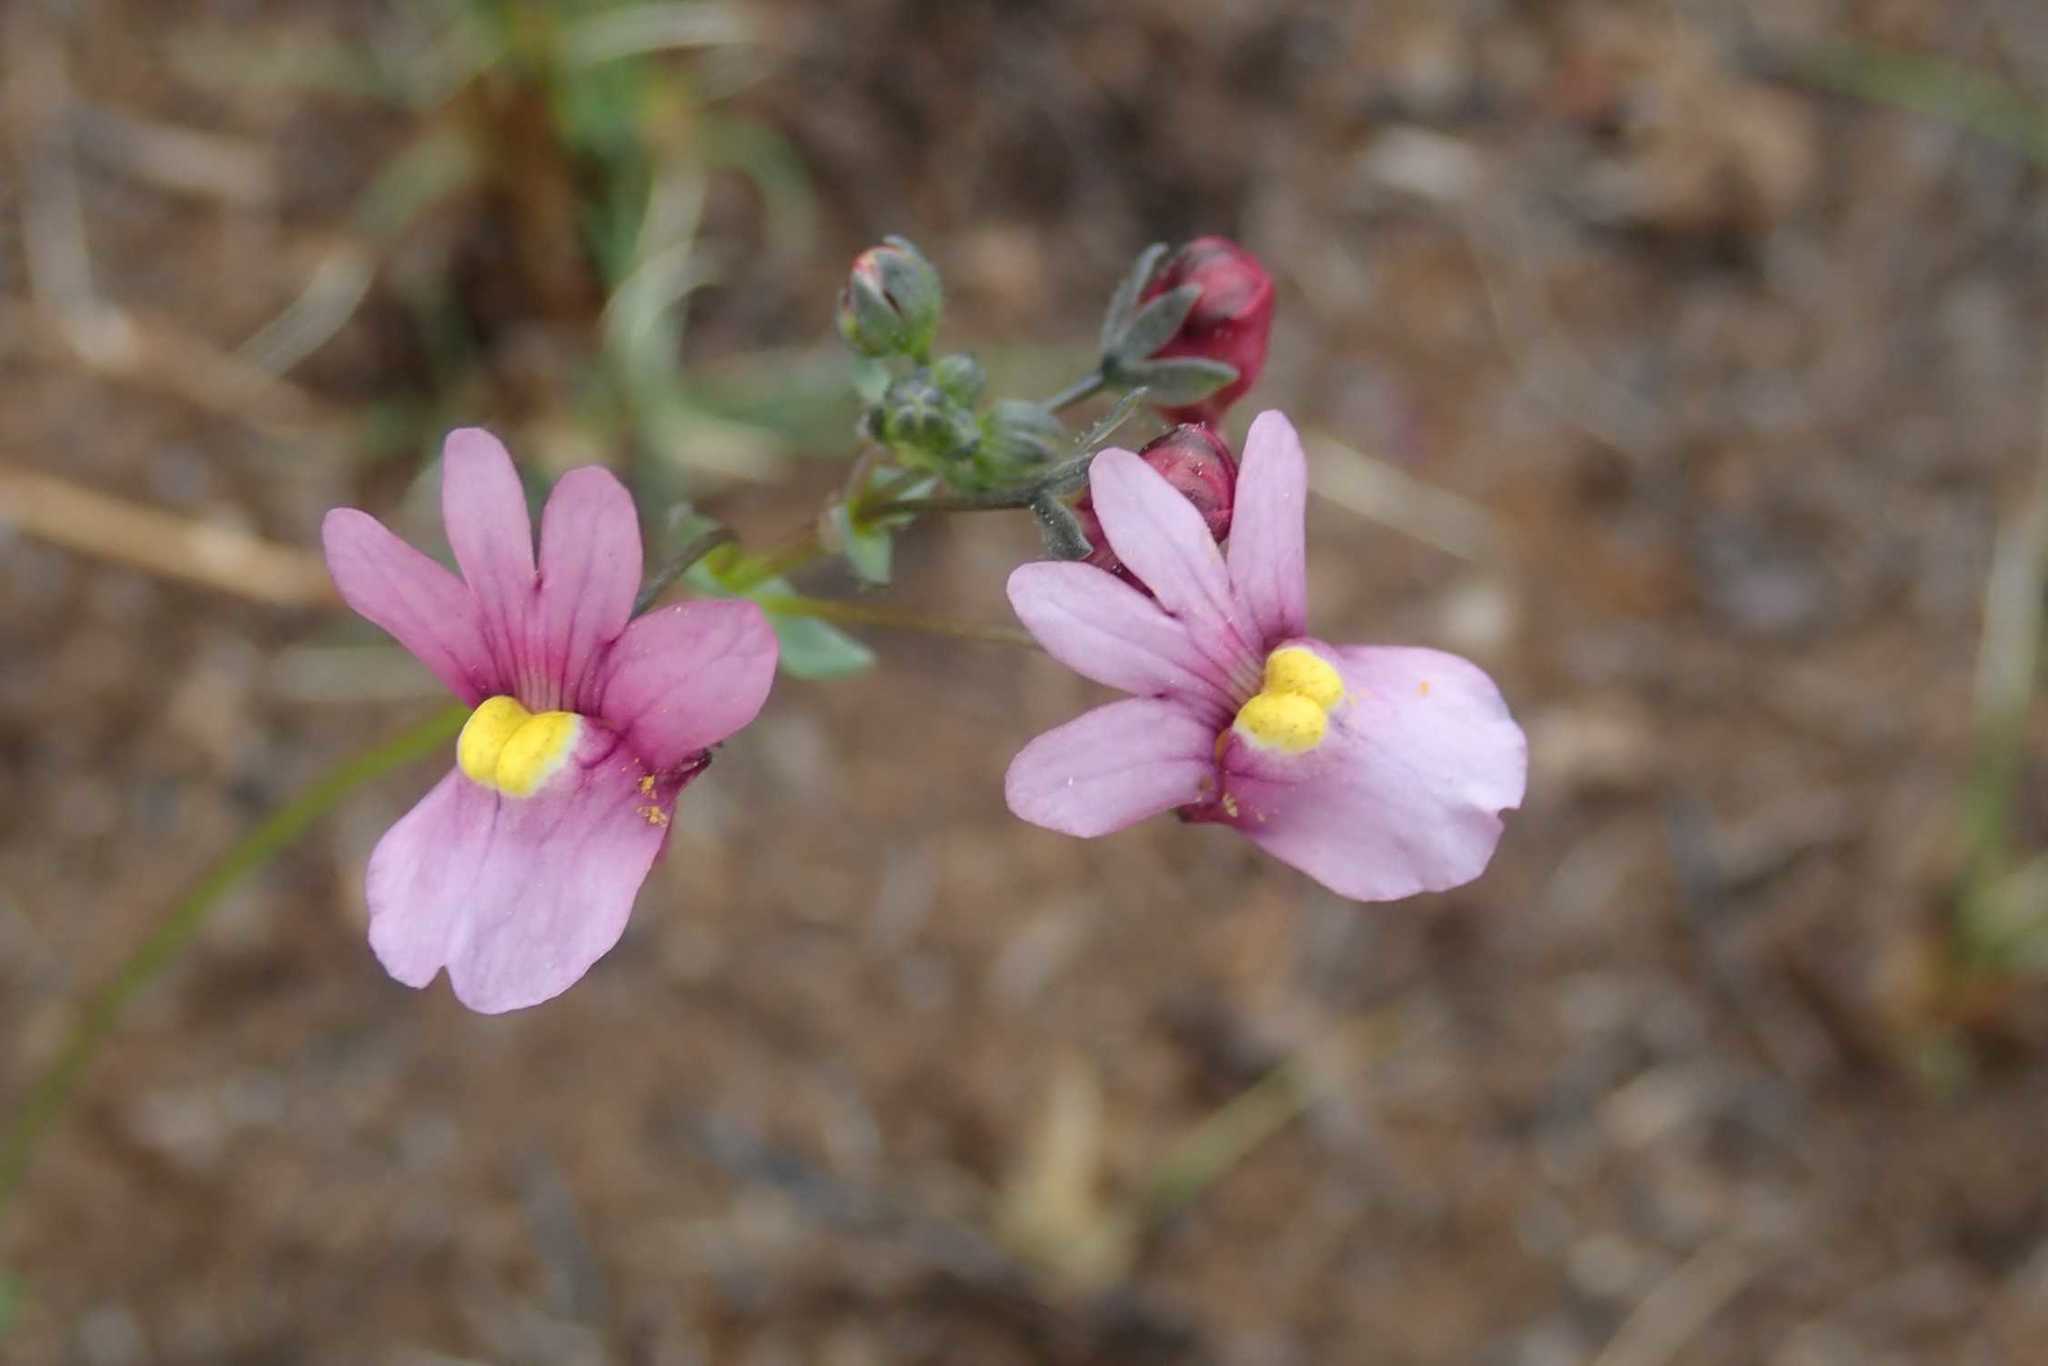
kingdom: Plantae
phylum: Tracheophyta
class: Magnoliopsida
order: Lamiales
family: Scrophulariaceae
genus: Nemesia
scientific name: Nemesia fruticans
